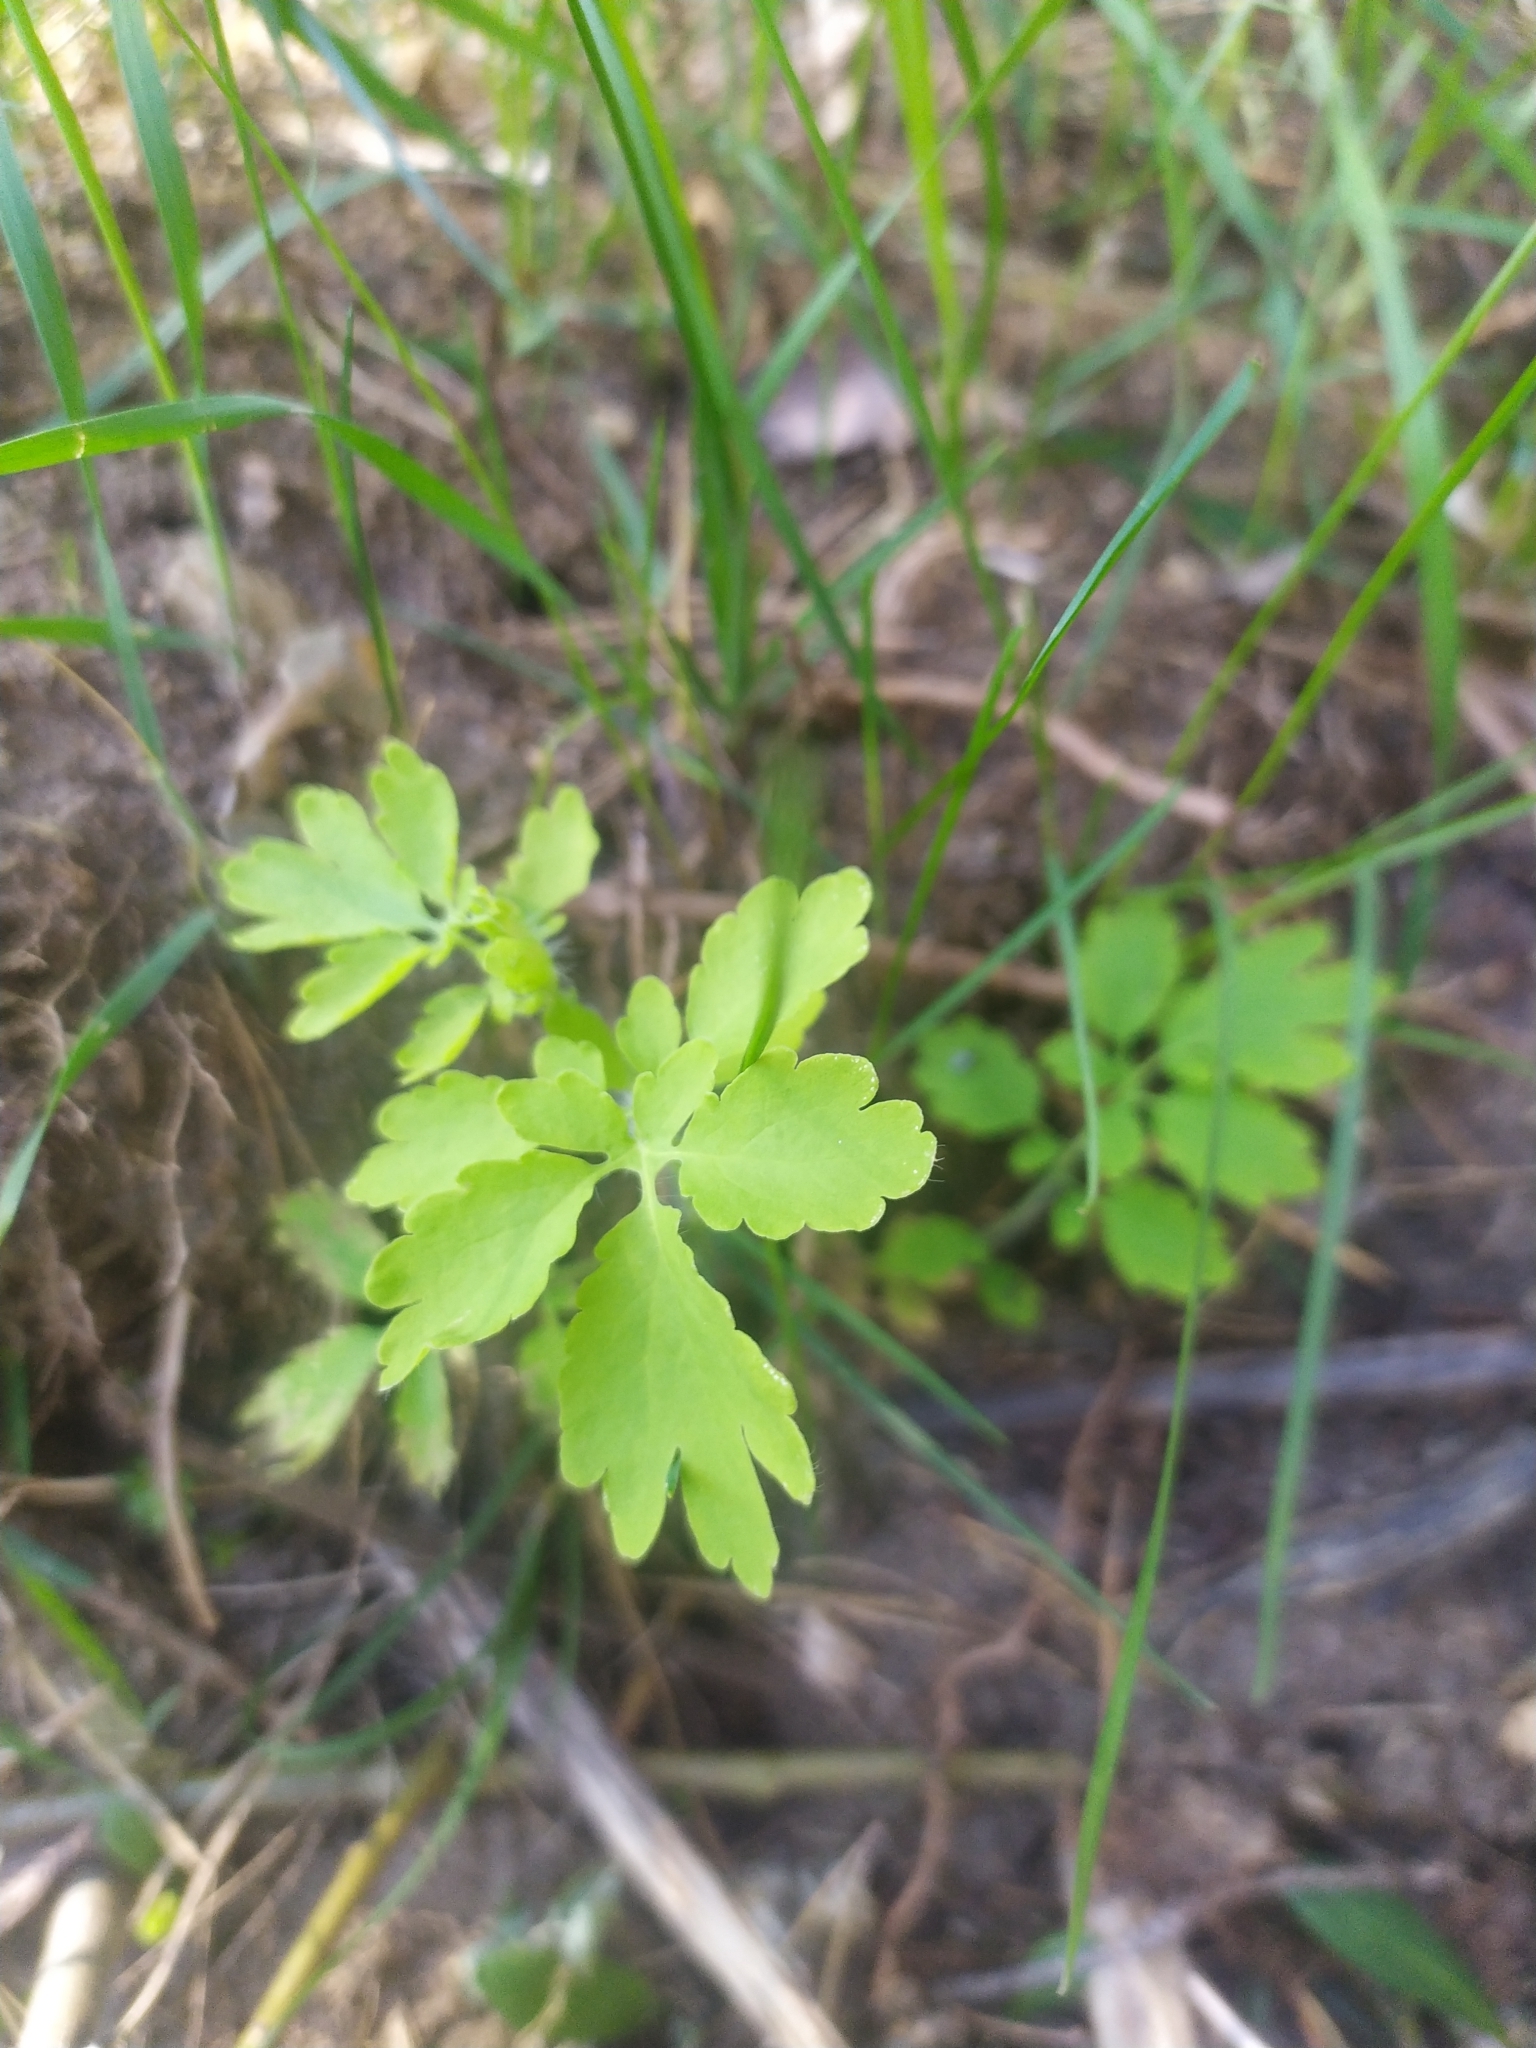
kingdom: Plantae
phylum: Tracheophyta
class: Magnoliopsida
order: Ranunculales
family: Papaveraceae
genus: Chelidonium
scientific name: Chelidonium majus
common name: Greater celandine
